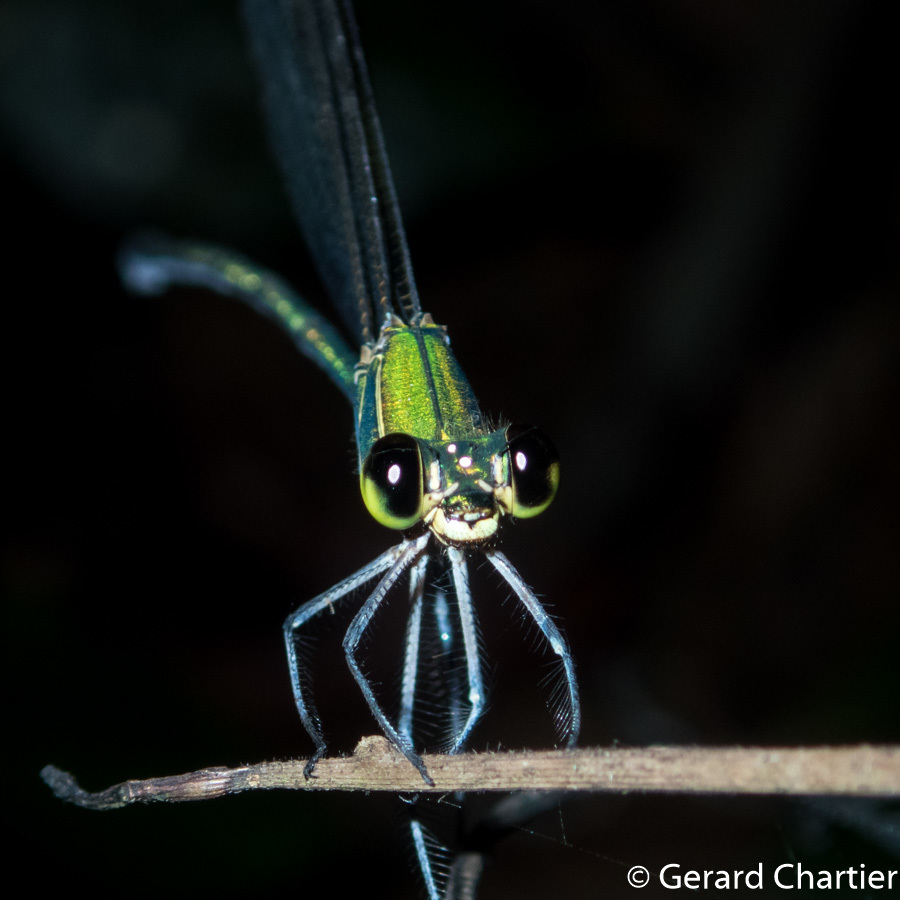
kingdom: Animalia
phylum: Arthropoda
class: Insecta
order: Odonata
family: Calopterygidae
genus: Vestalis
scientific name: Vestalis gracilis
